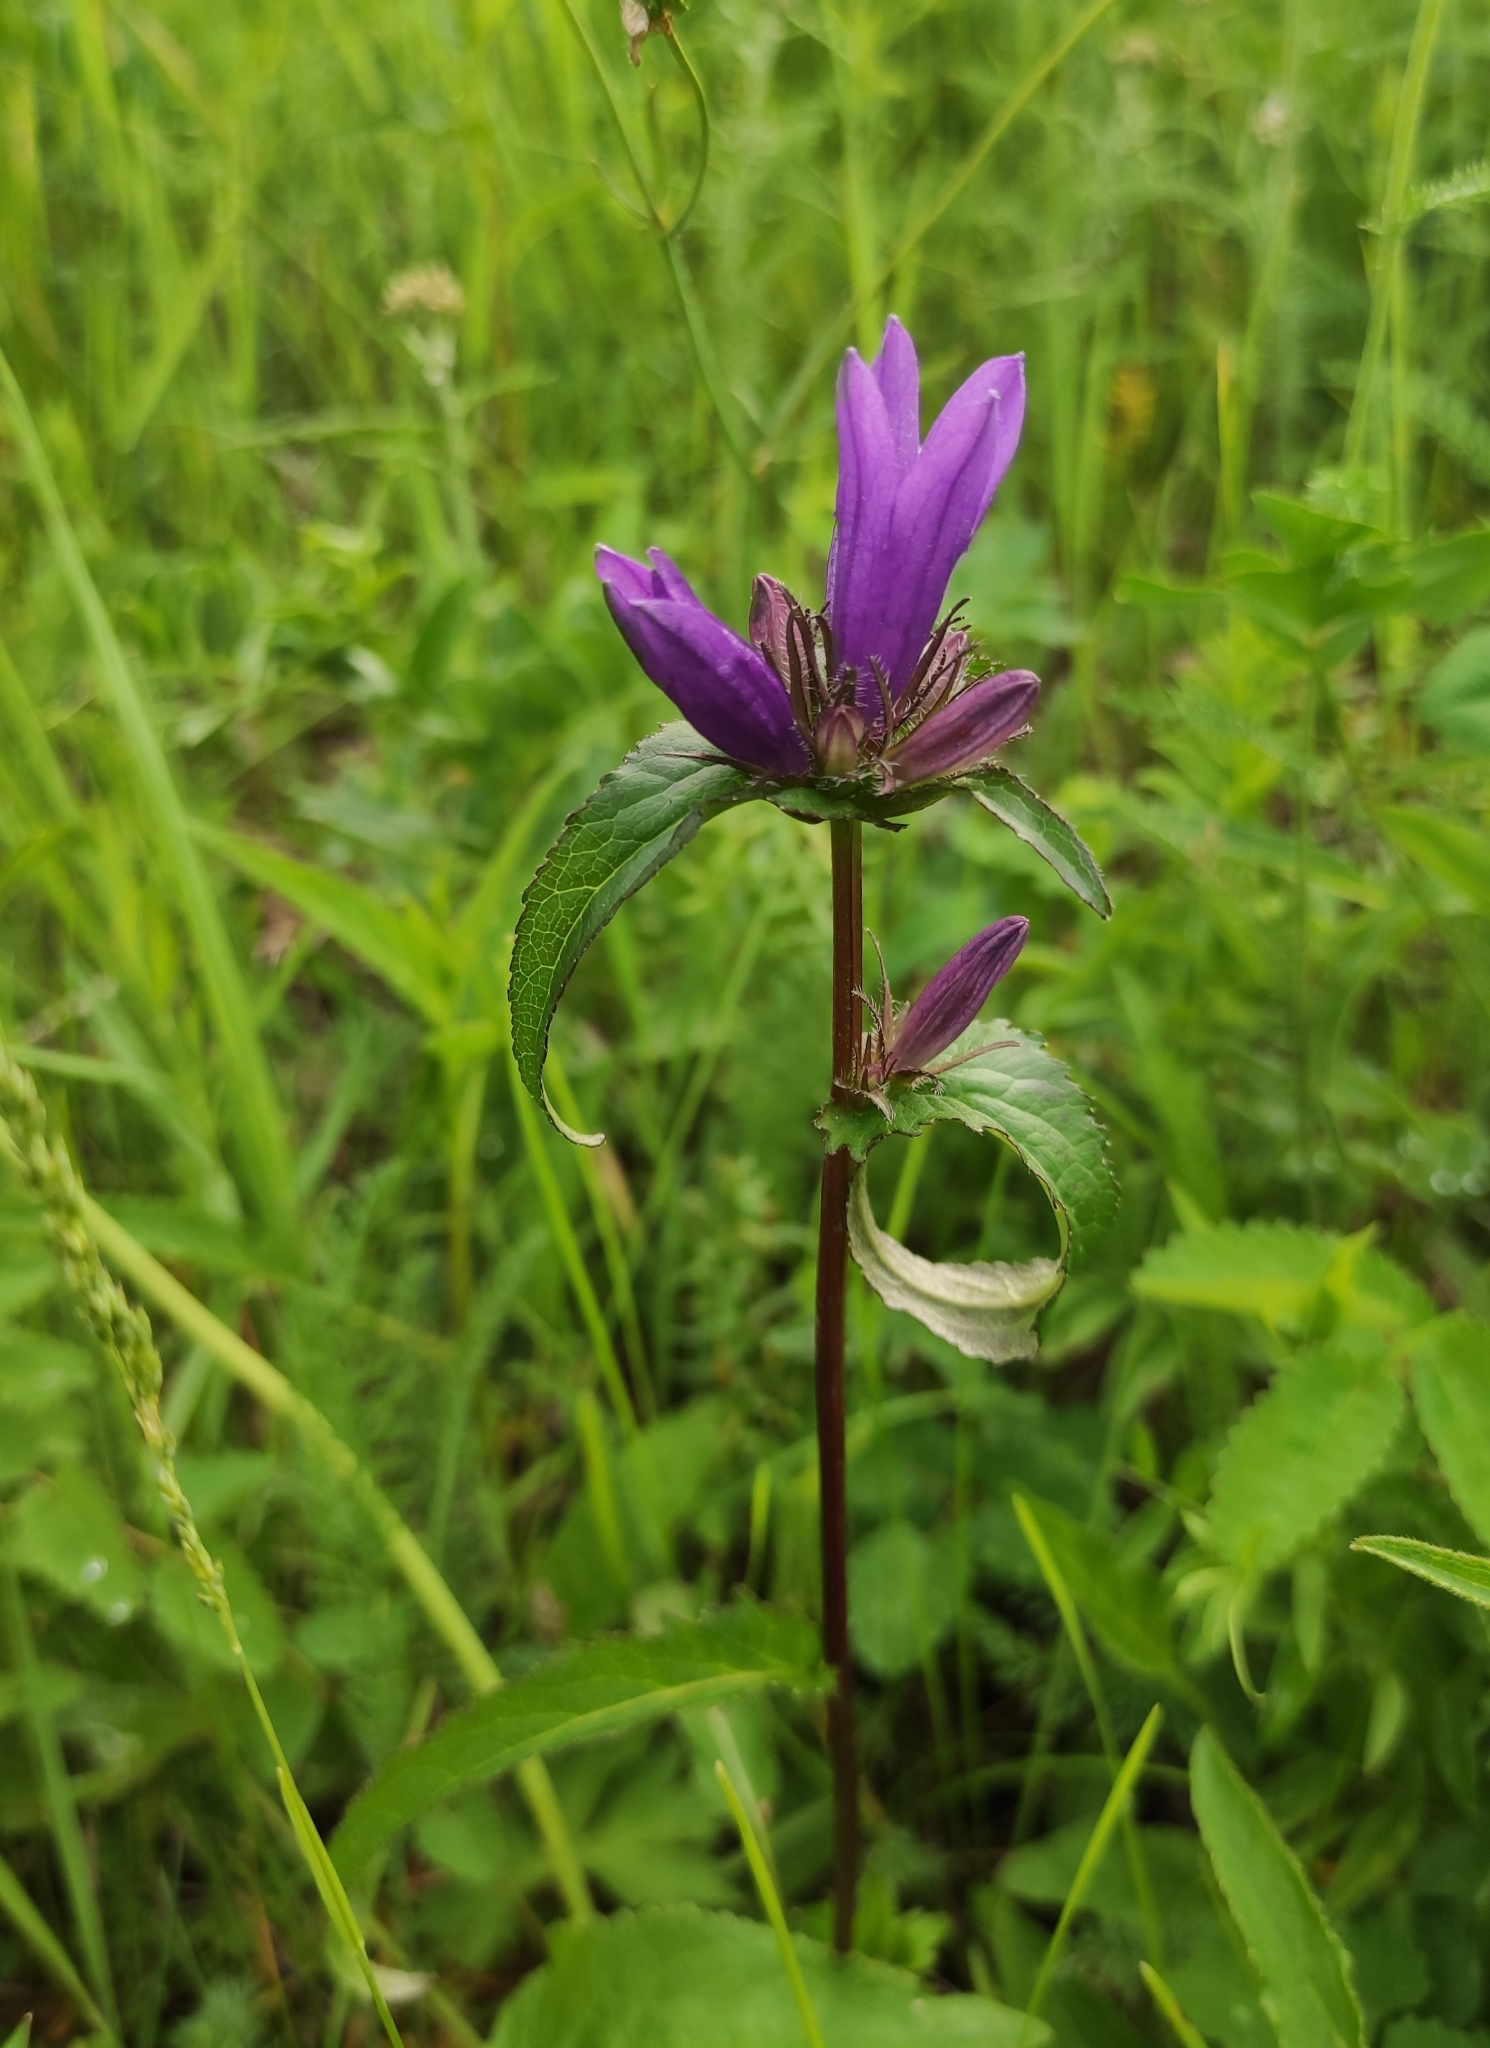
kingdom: Plantae
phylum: Tracheophyta
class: Magnoliopsida
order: Asterales
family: Campanulaceae
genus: Campanula
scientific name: Campanula glomerata
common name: Clustered bellflower
